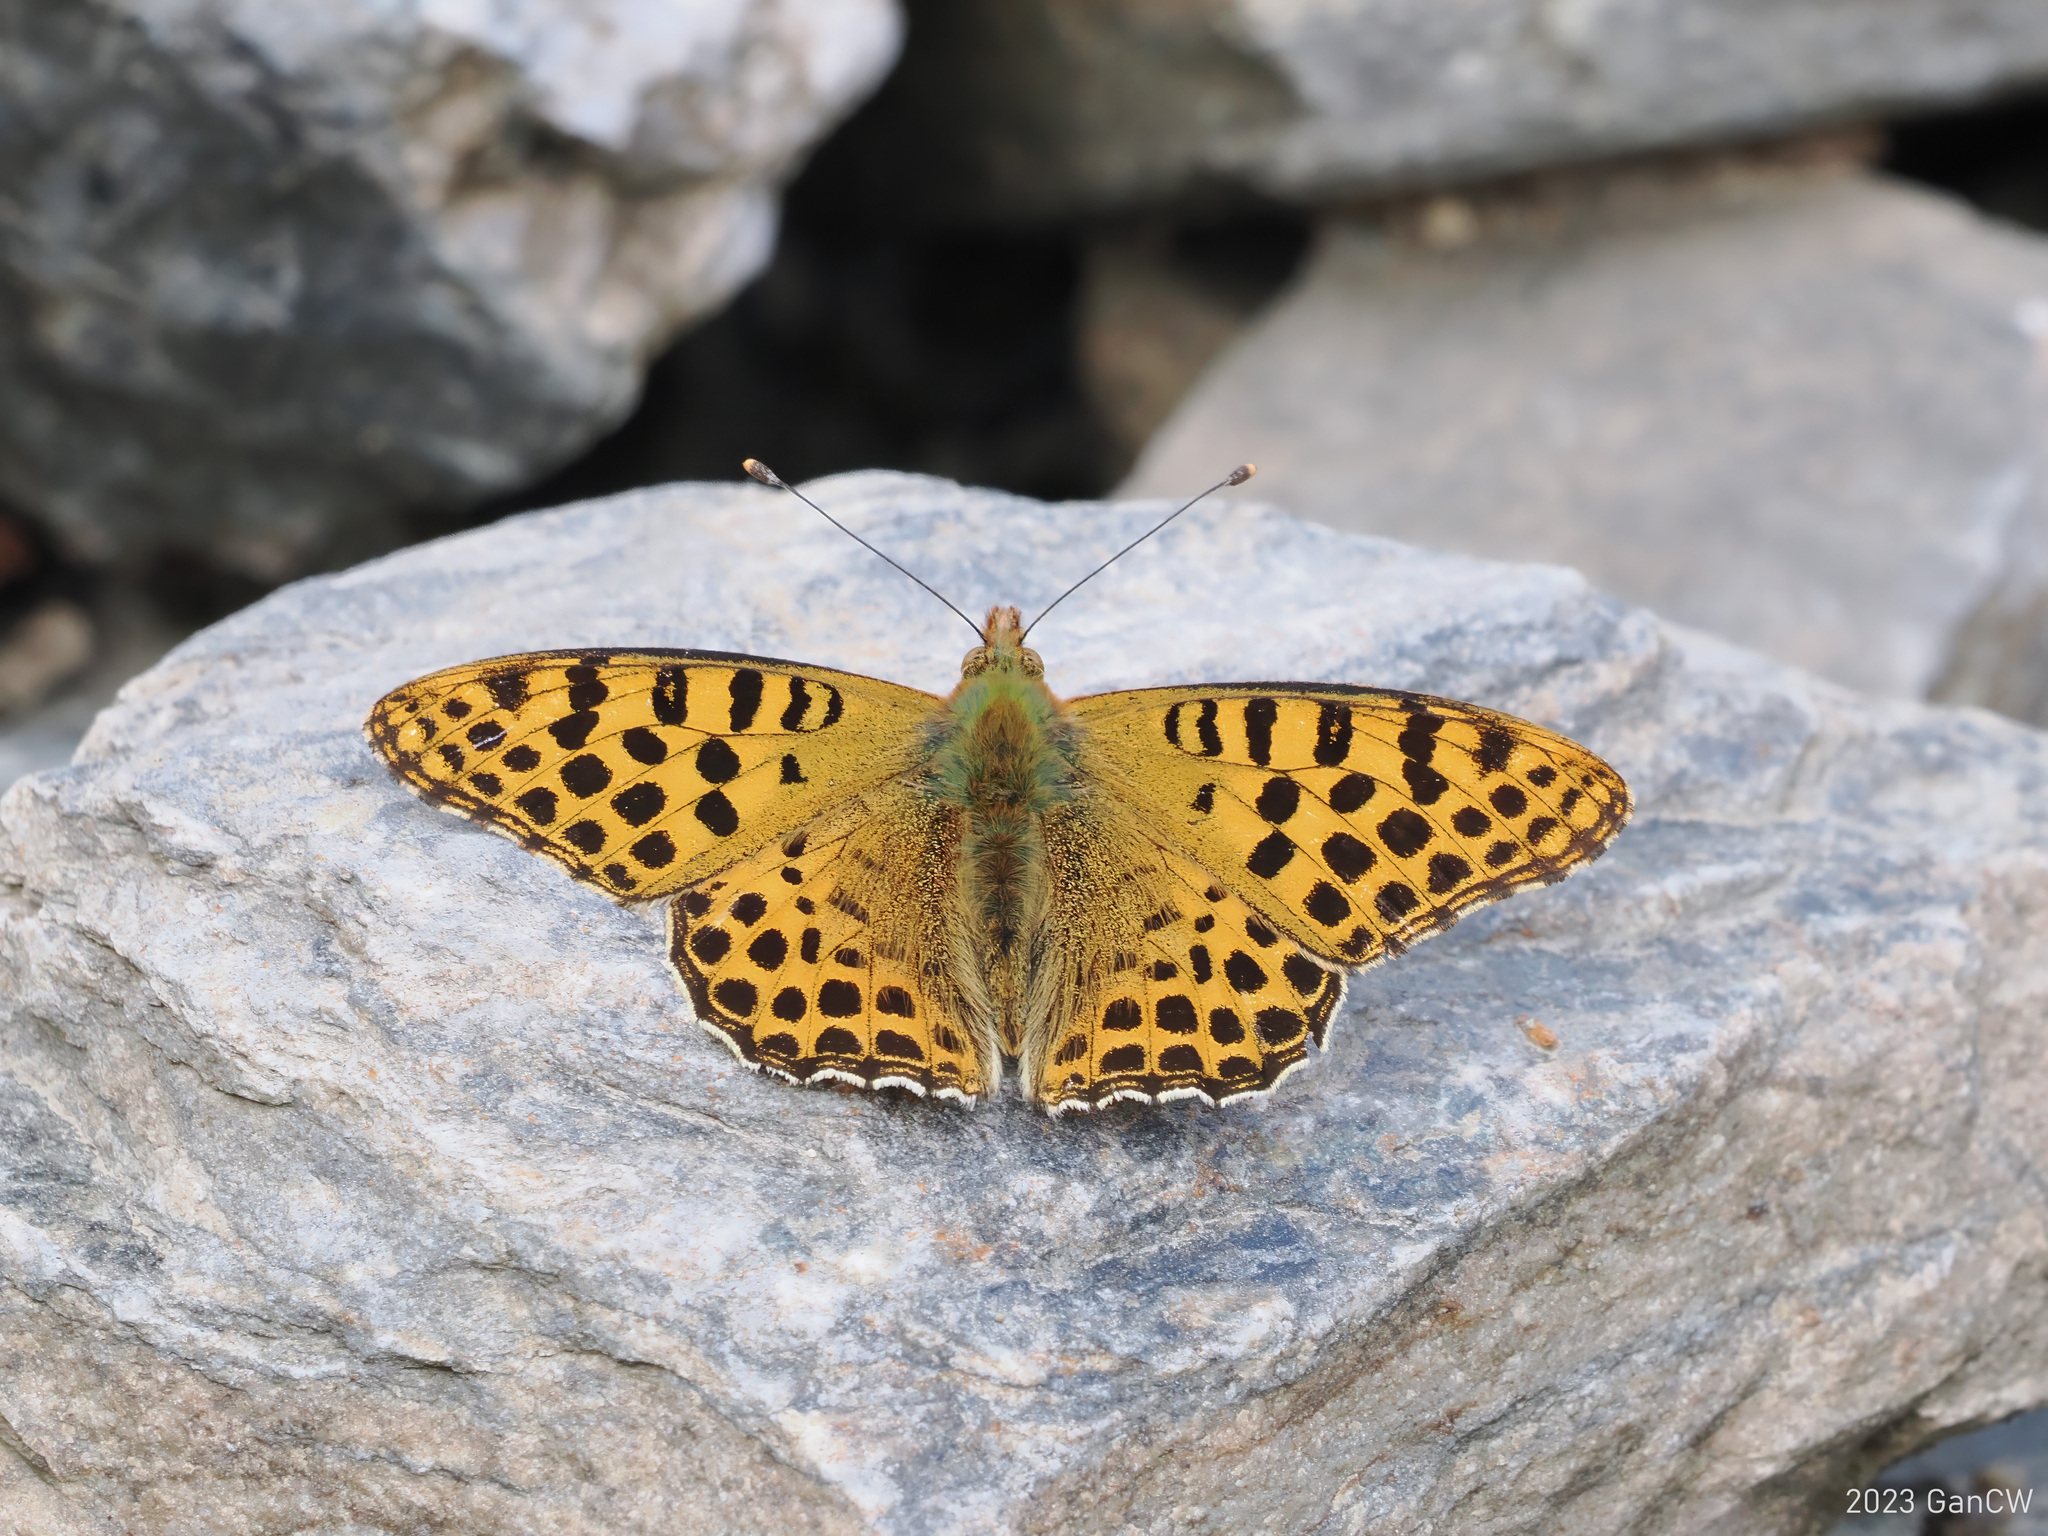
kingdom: Animalia
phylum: Arthropoda
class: Insecta
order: Lepidoptera
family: Nymphalidae
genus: Issoria
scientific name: Issoria
